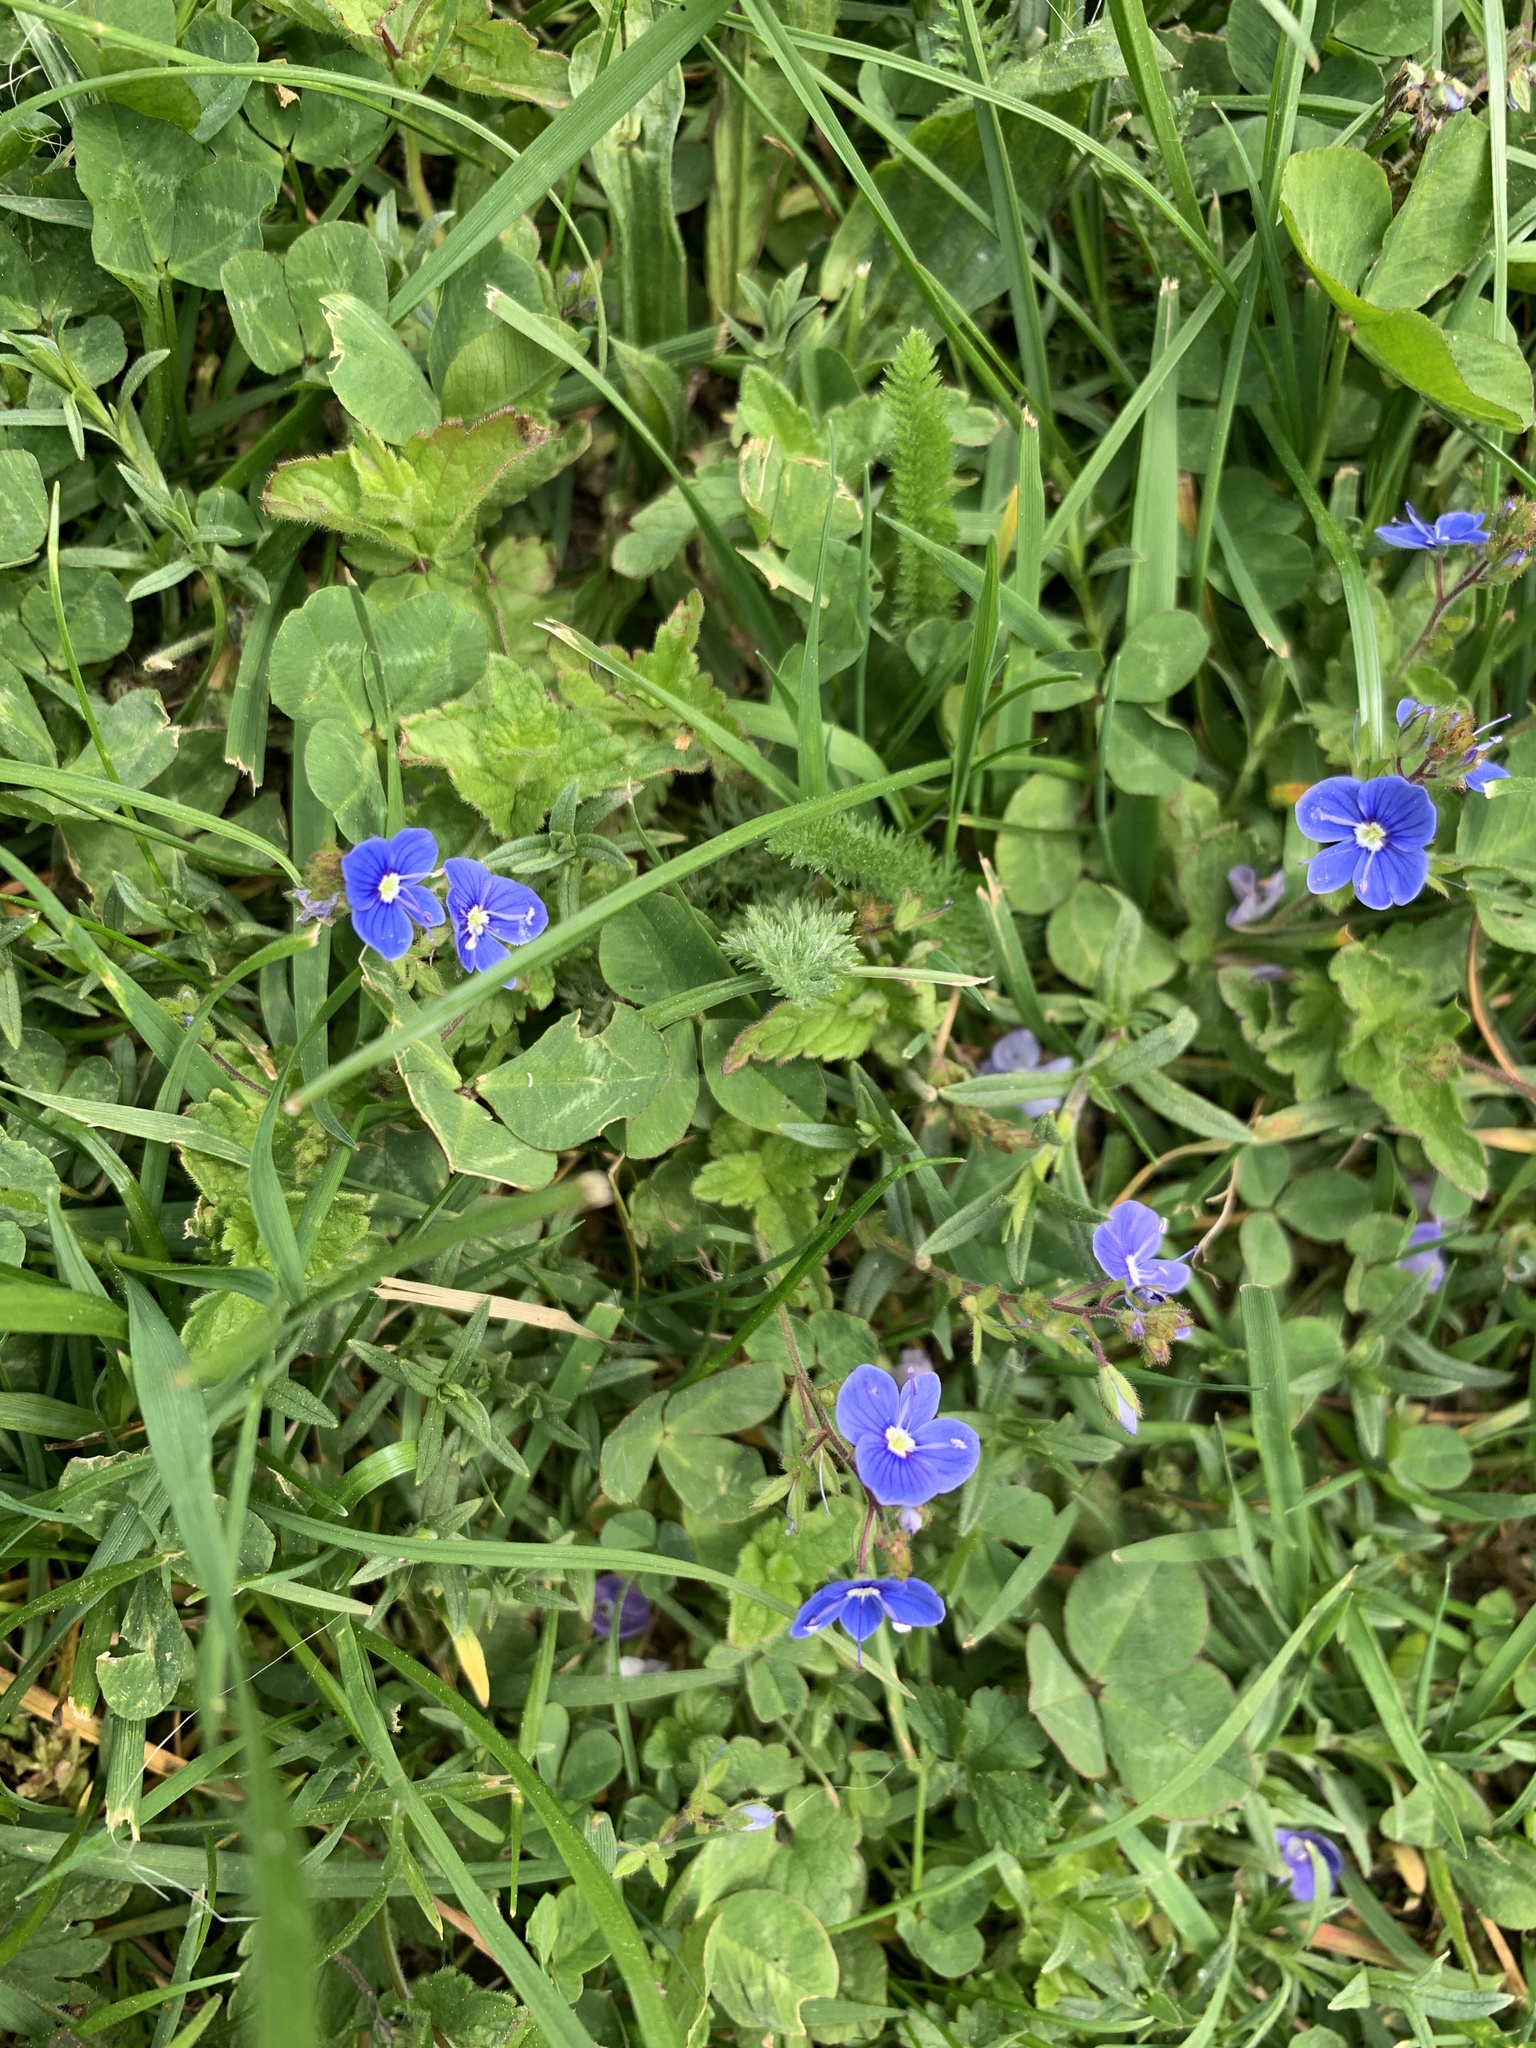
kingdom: Plantae
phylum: Tracheophyta
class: Magnoliopsida
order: Lamiales
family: Plantaginaceae
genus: Veronica
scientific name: Veronica chamaedrys
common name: Germander speedwell
